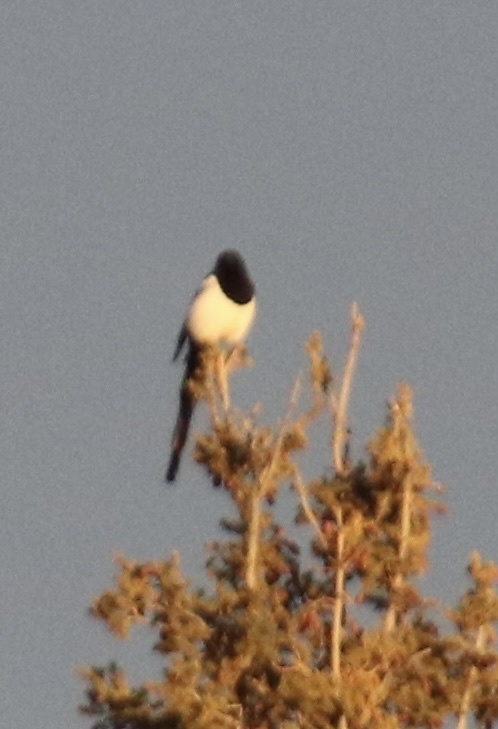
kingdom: Animalia
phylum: Chordata
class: Aves
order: Passeriformes
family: Corvidae
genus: Pica
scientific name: Pica hudsonia
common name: Black-billed magpie
